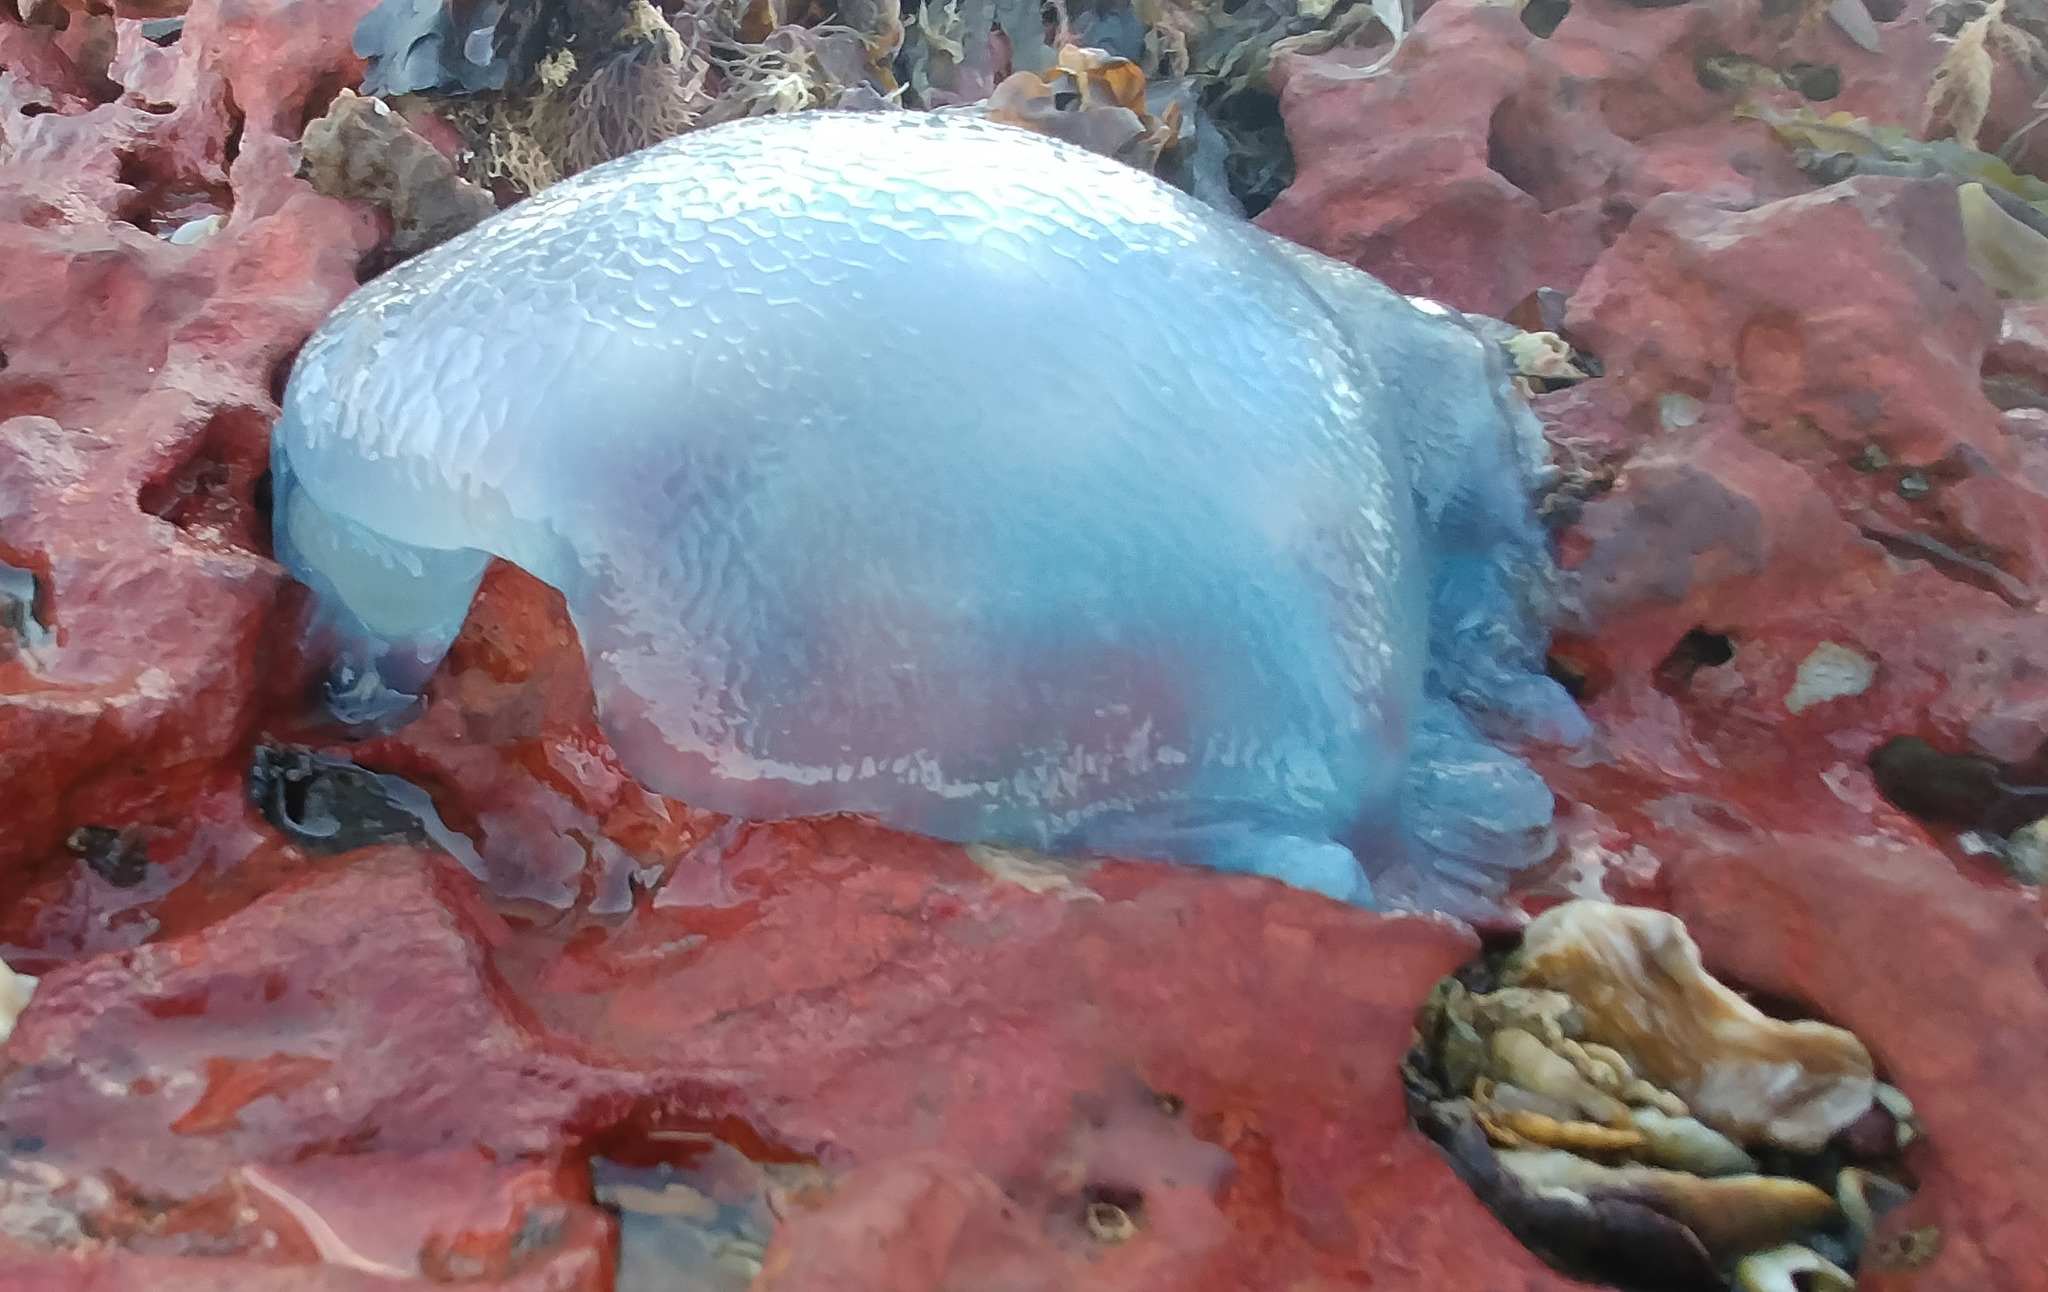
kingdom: Animalia
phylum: Cnidaria
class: Scyphozoa
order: Rhizostomeae
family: Catostylidae
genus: Catostylus
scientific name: Catostylus mosaicus
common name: Blue blubber
